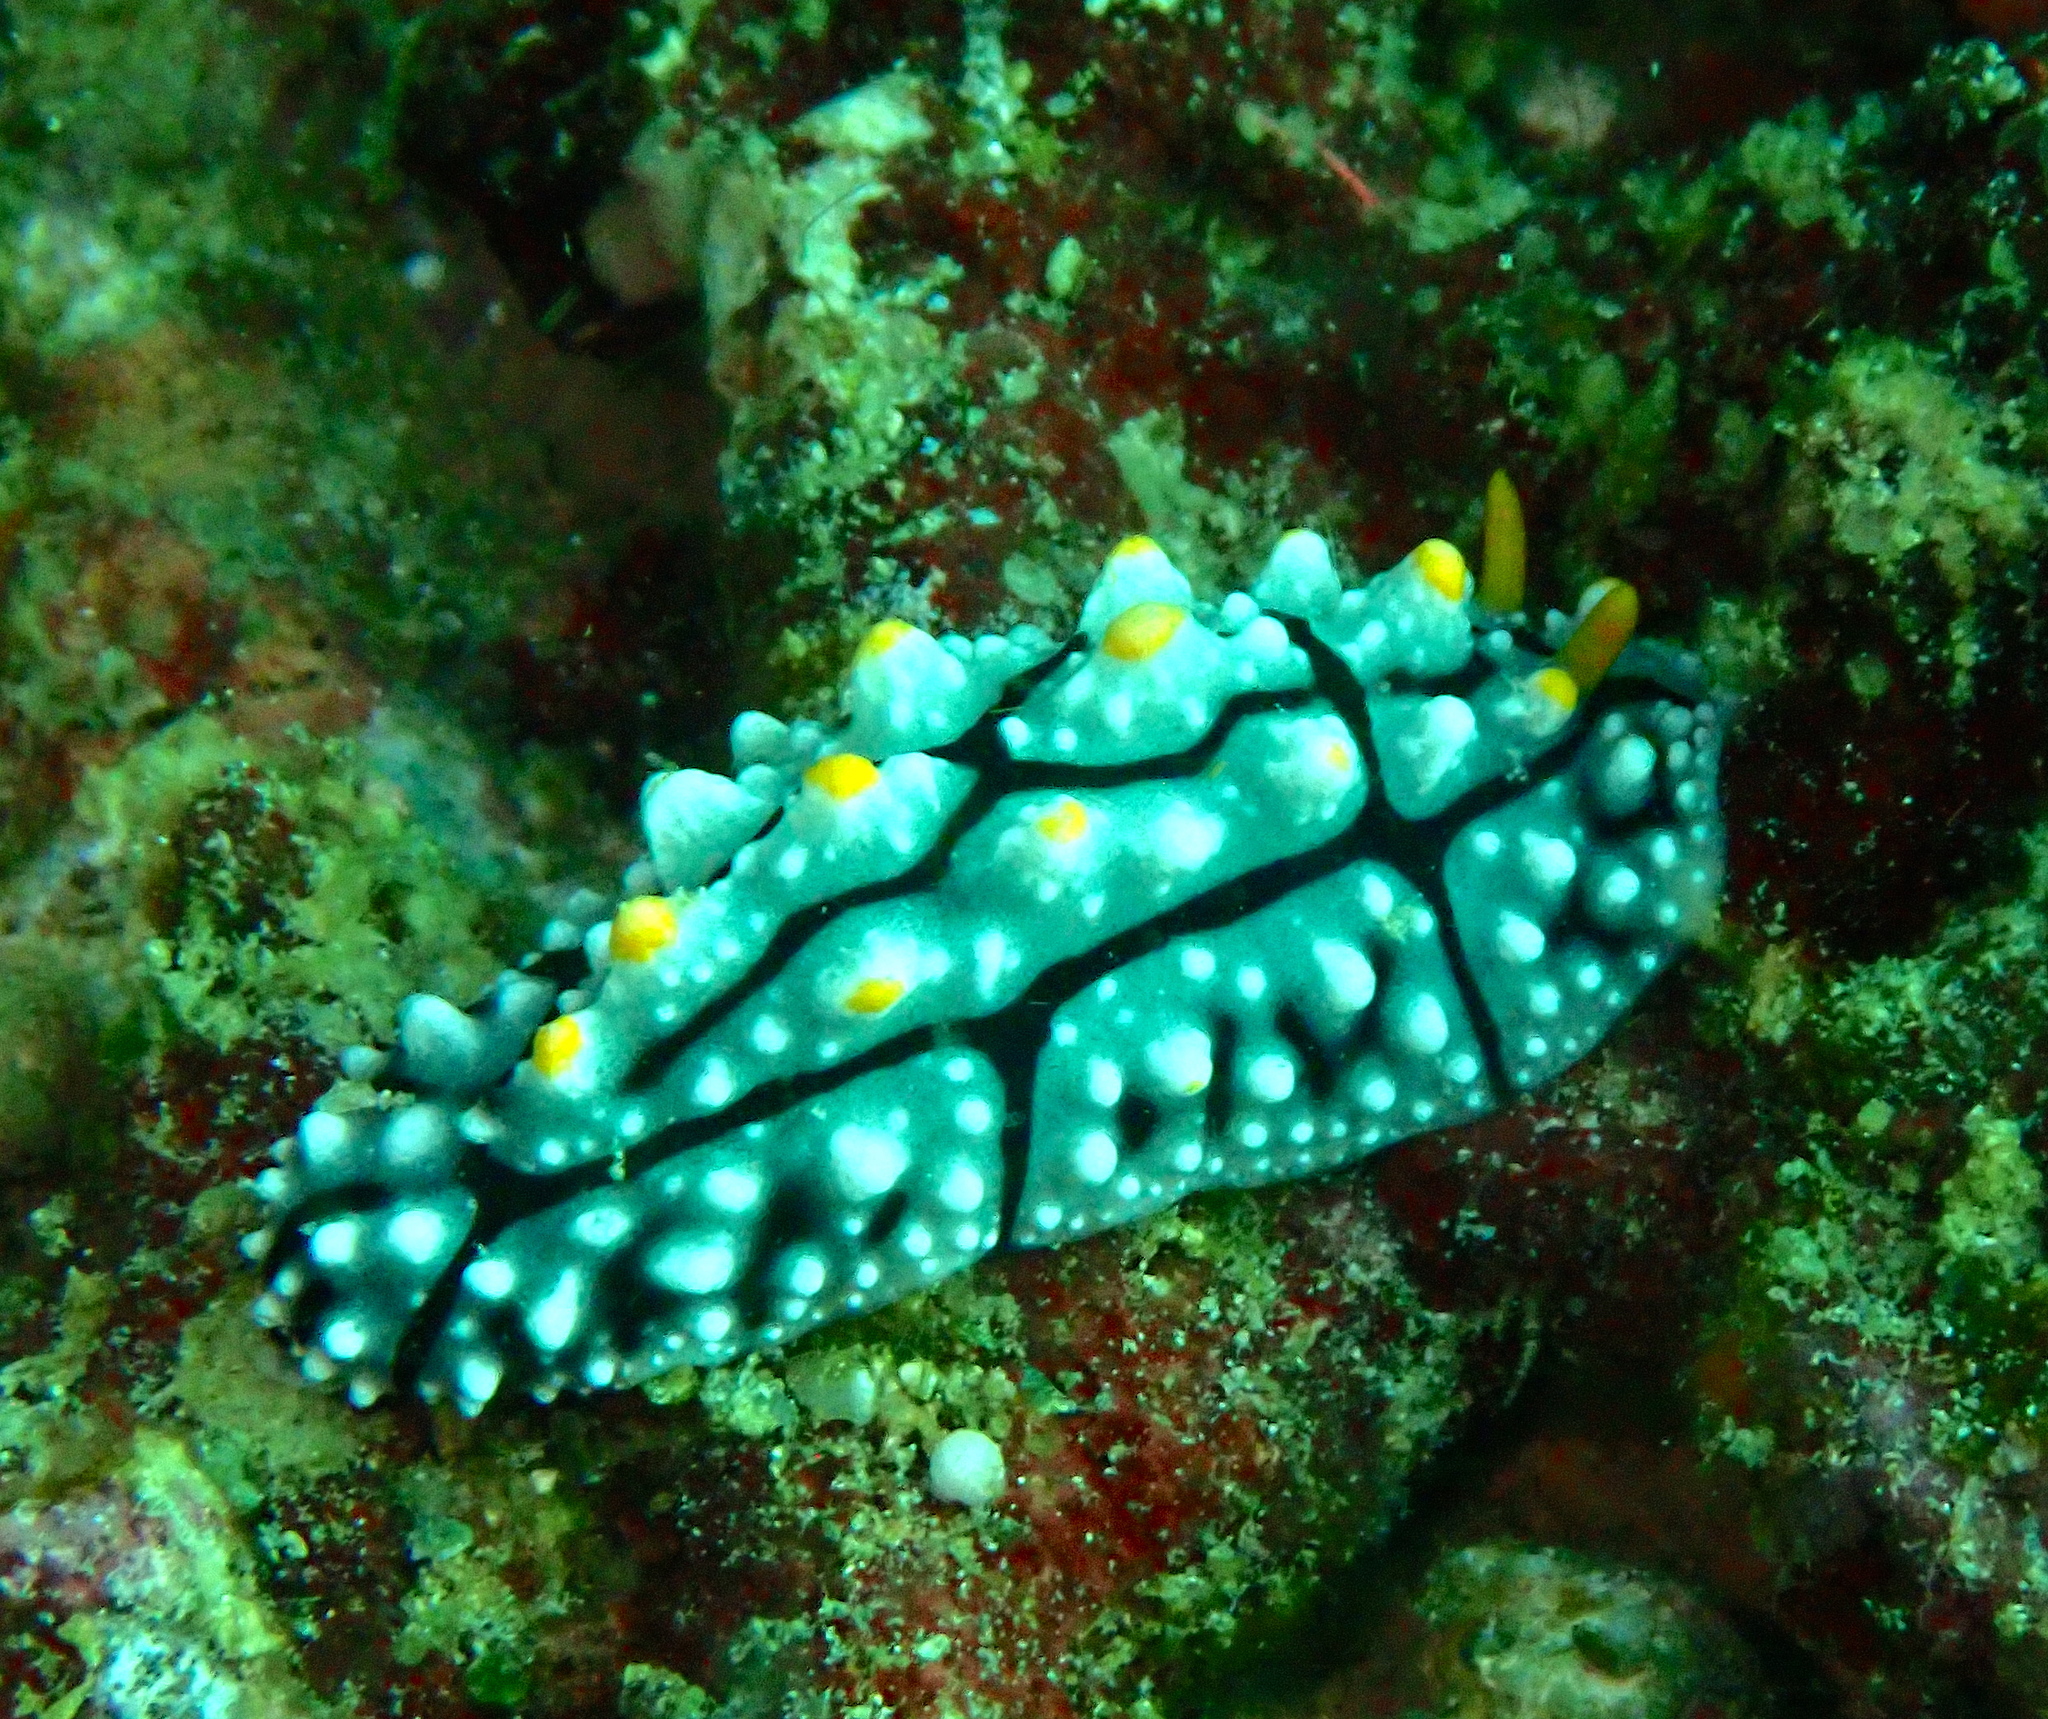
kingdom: Animalia
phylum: Mollusca
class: Gastropoda
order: Nudibranchia
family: Phyllidiidae
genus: Phyllidia
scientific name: Phyllidia elegans
